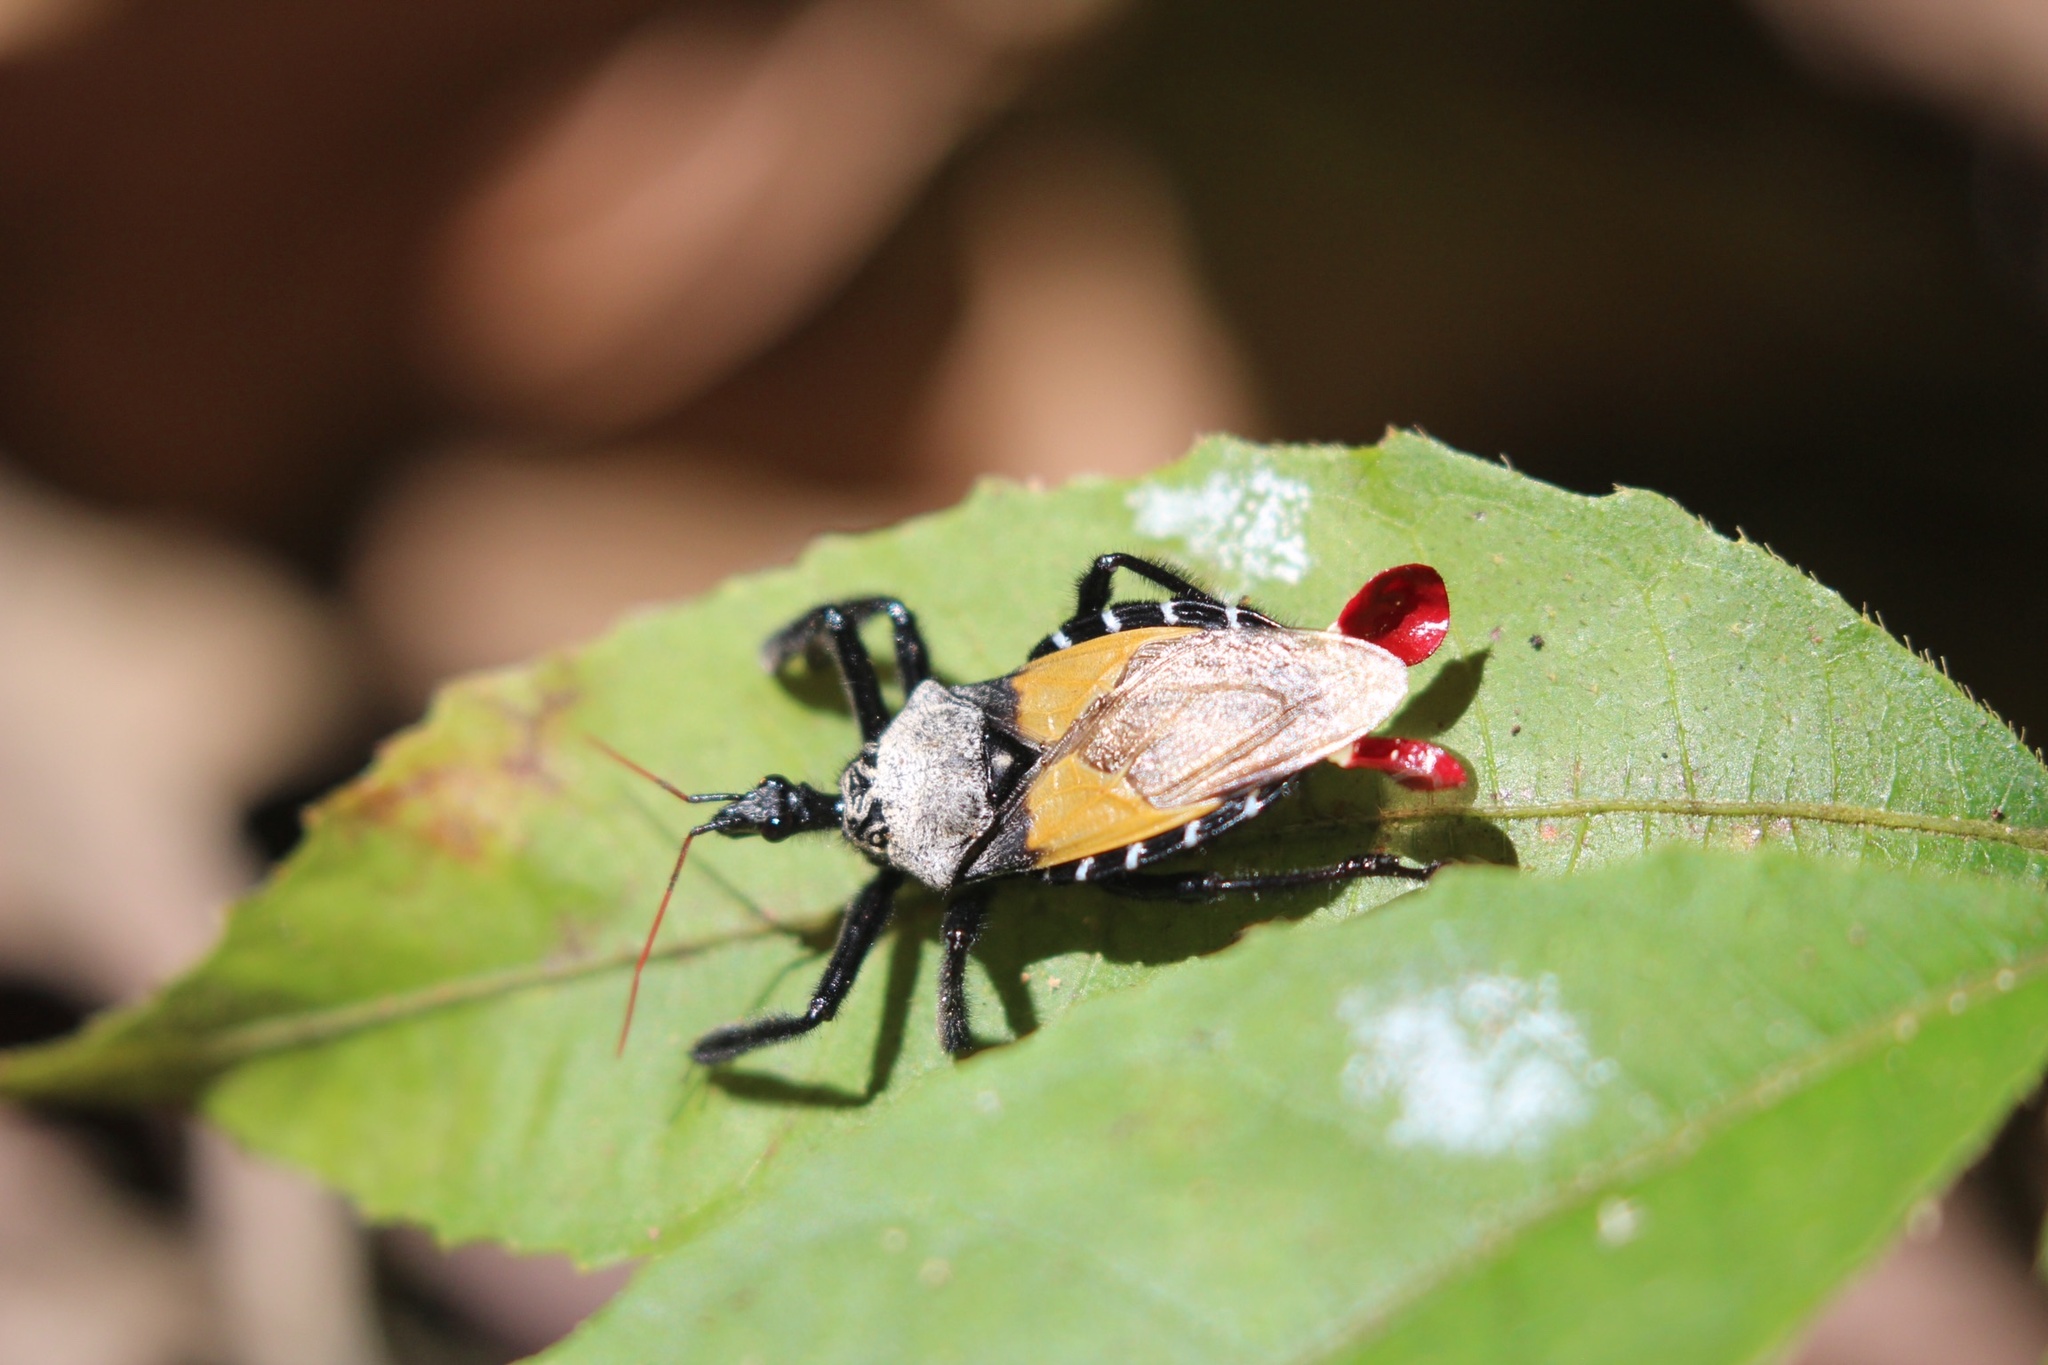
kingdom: Animalia
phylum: Arthropoda
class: Insecta
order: Hemiptera
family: Reduviidae
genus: Apiomerus
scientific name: Apiomerus vexillarius
